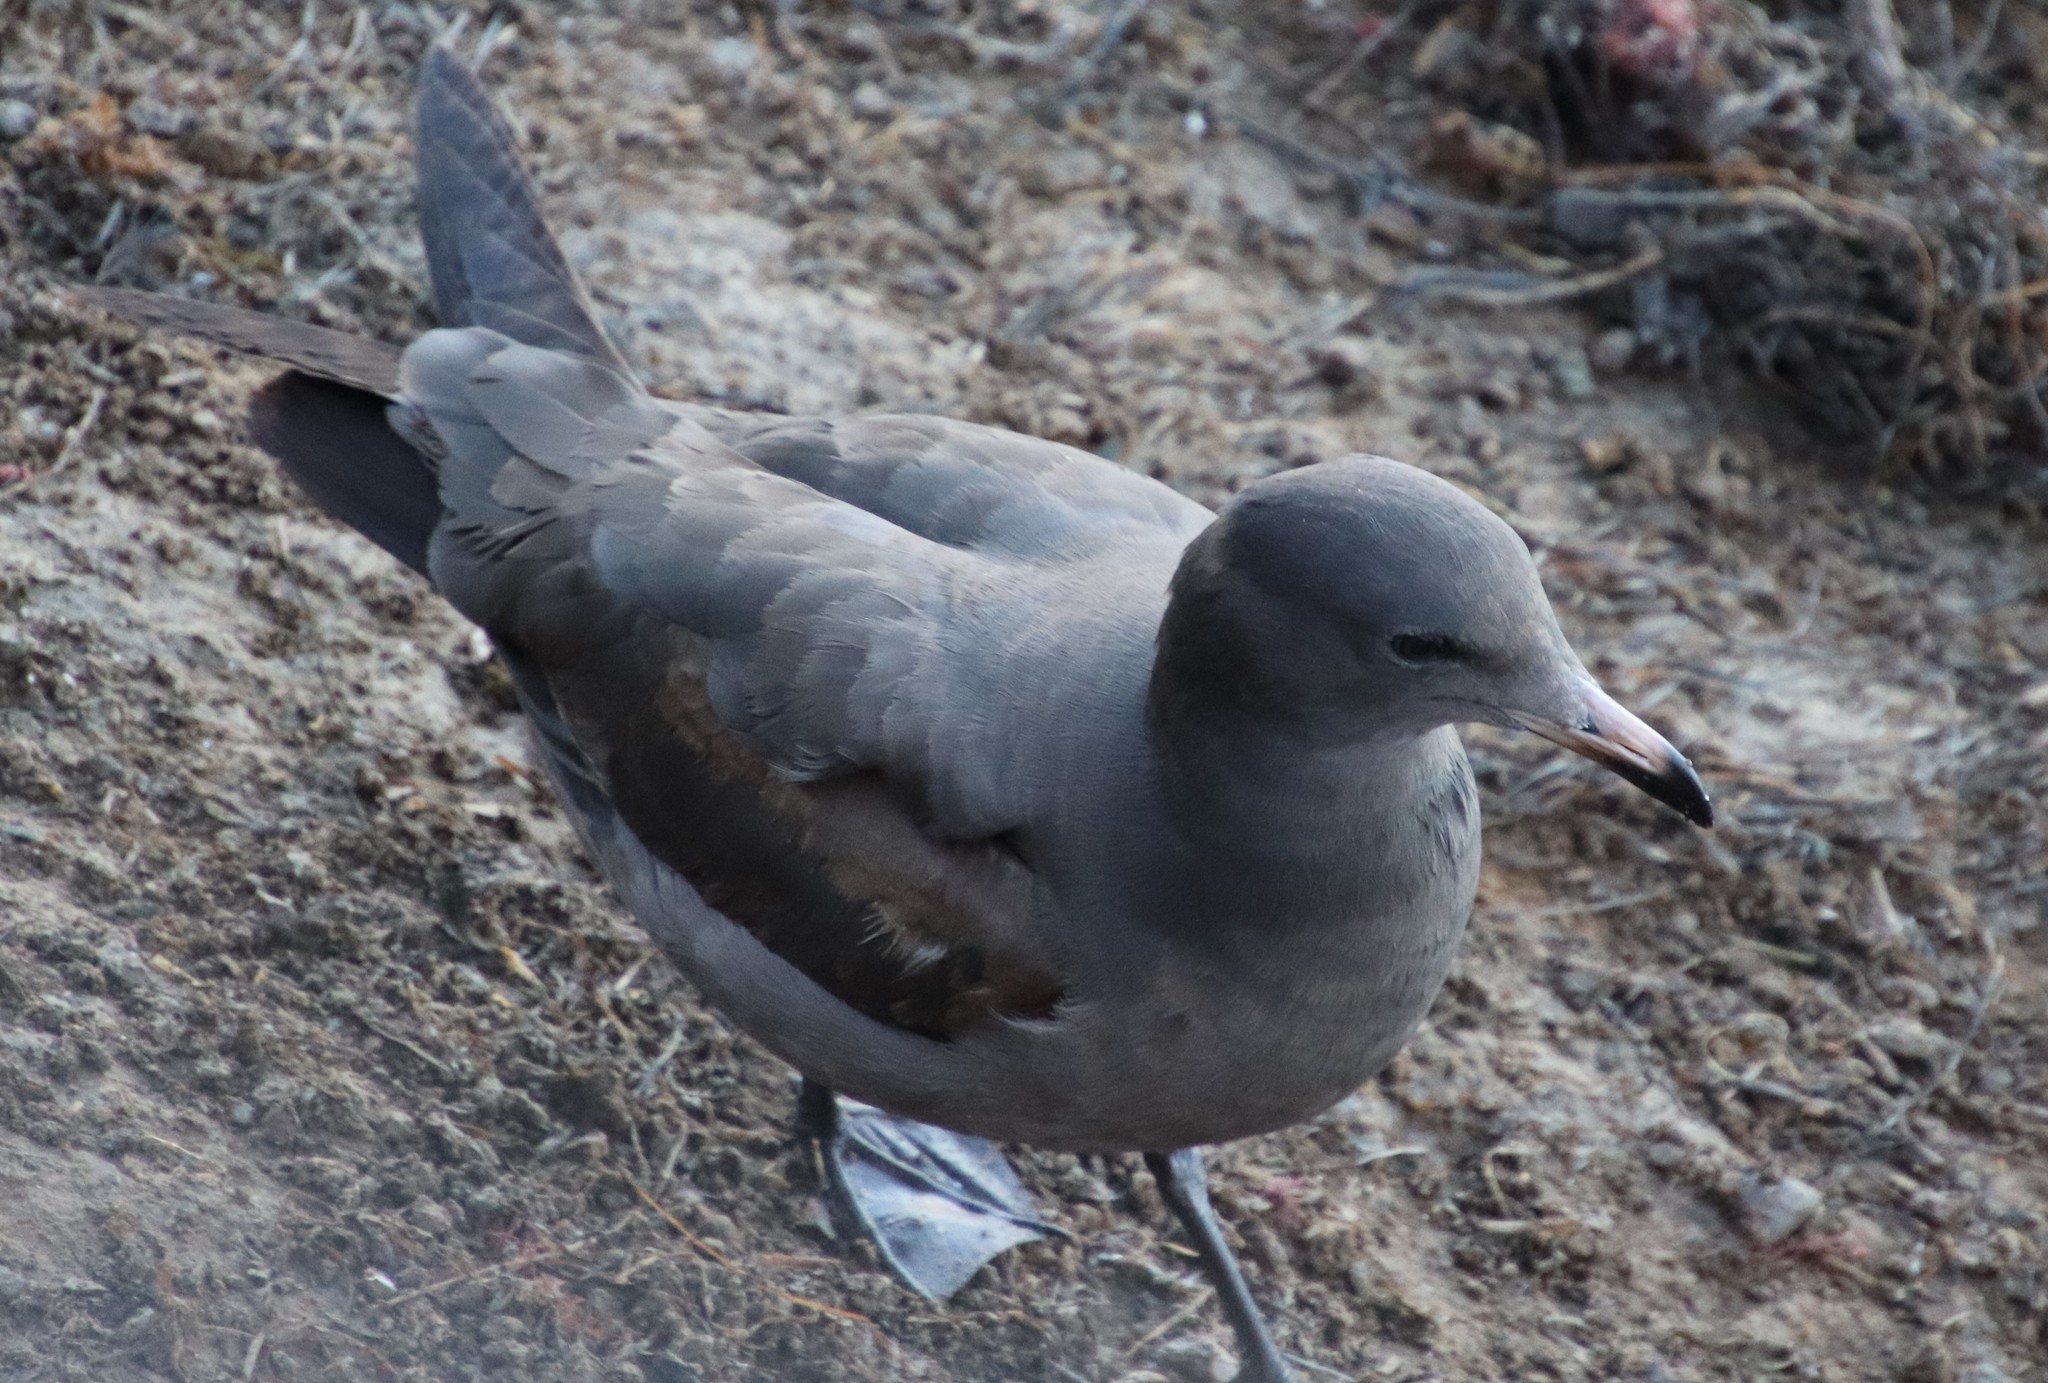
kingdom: Animalia
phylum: Chordata
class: Aves
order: Charadriiformes
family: Laridae
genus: Larus
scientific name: Larus heermanni
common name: Heermann's gull
